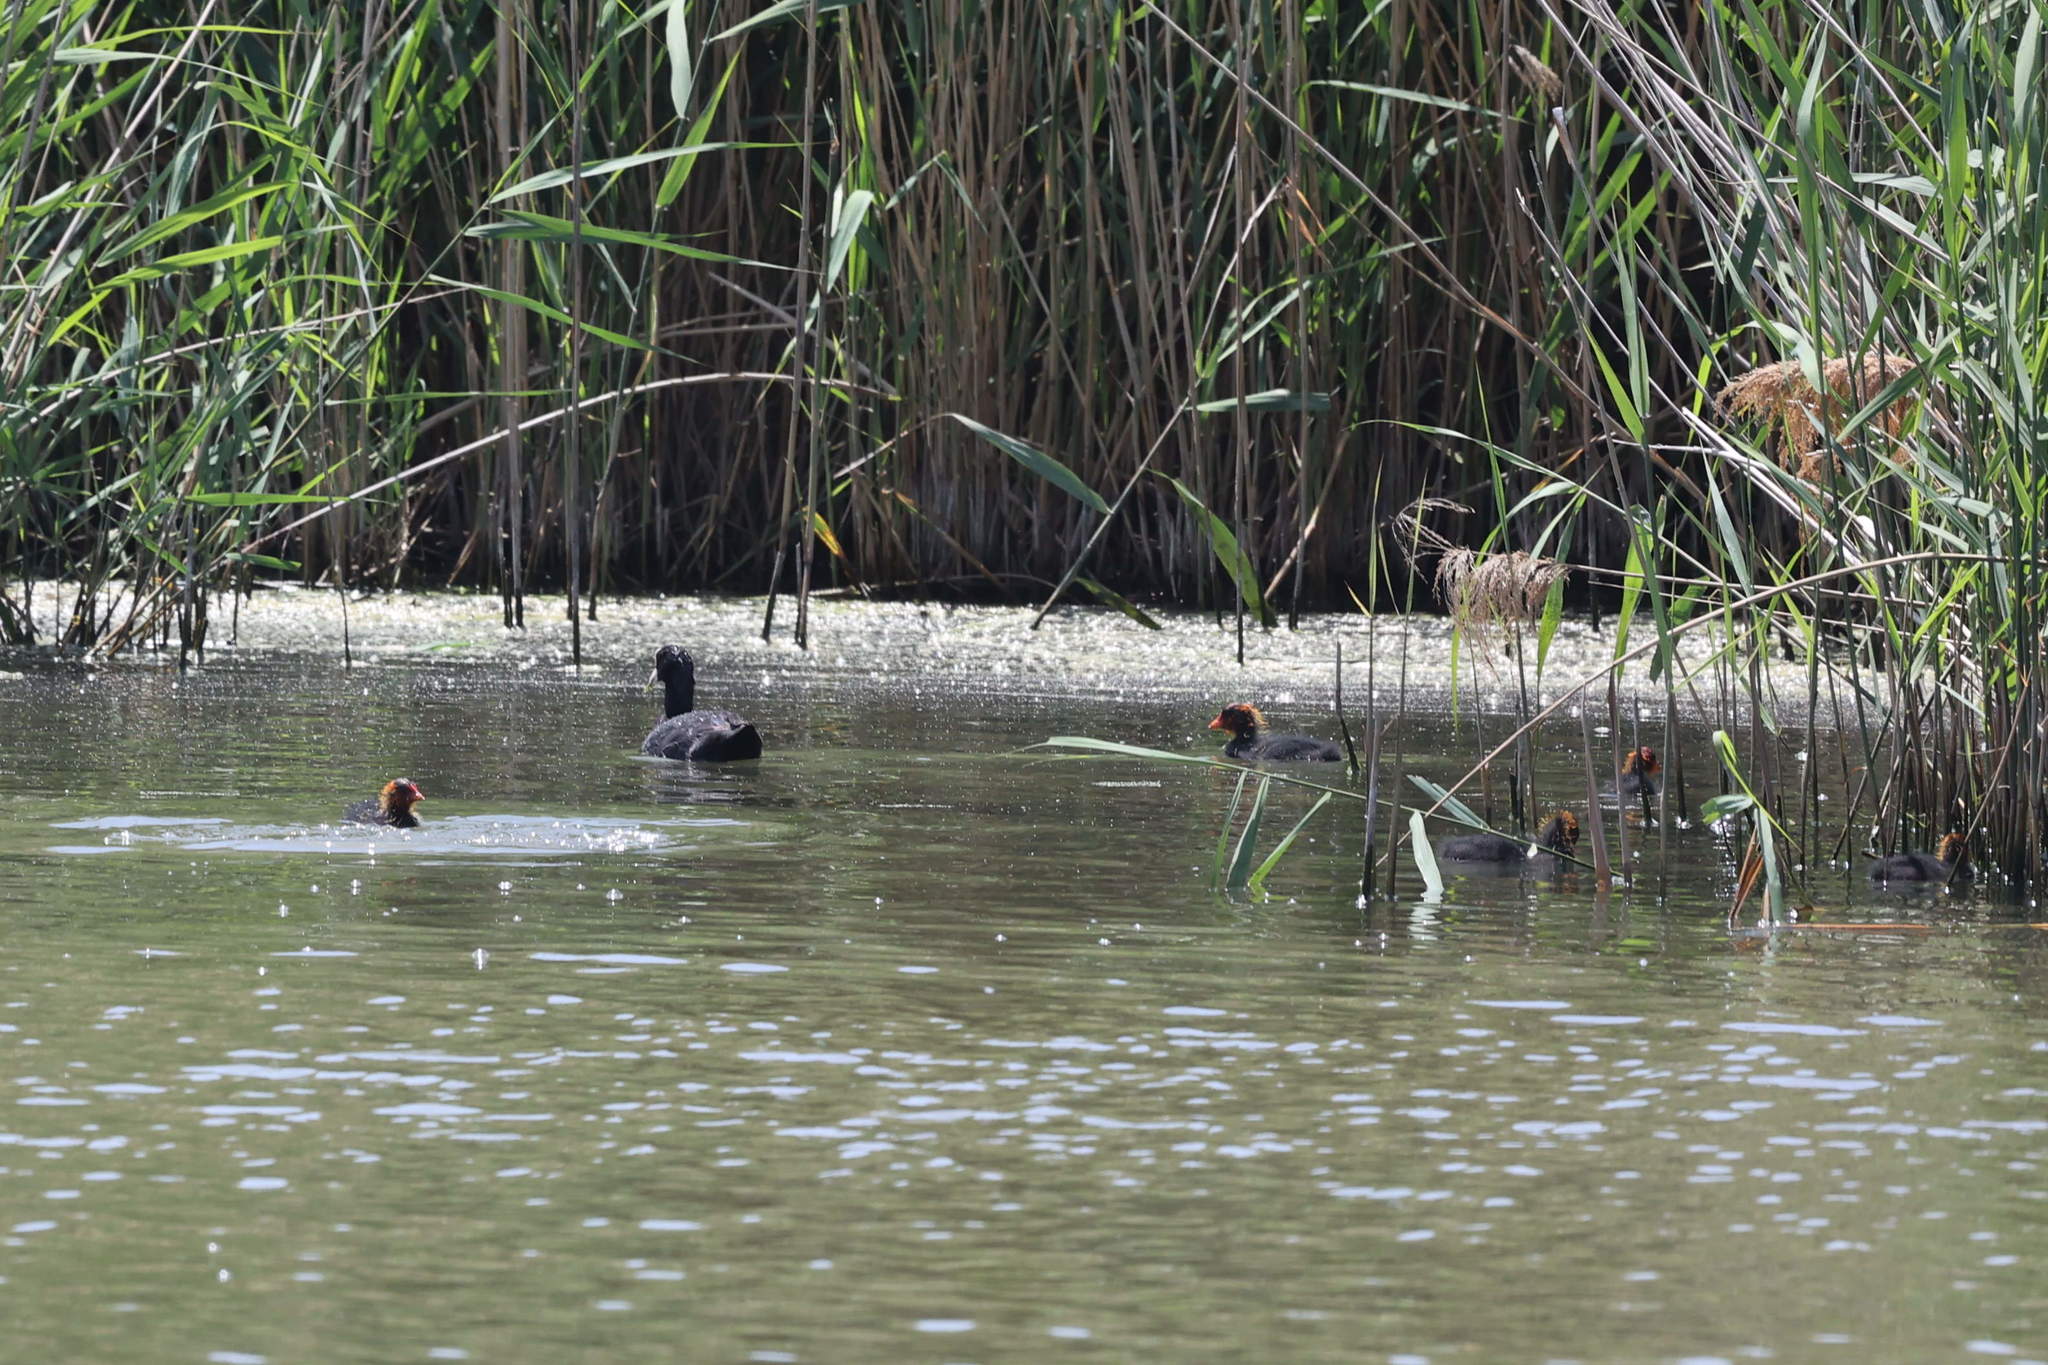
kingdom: Animalia
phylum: Chordata
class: Aves
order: Gruiformes
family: Rallidae
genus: Fulica
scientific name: Fulica atra
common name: Eurasian coot
